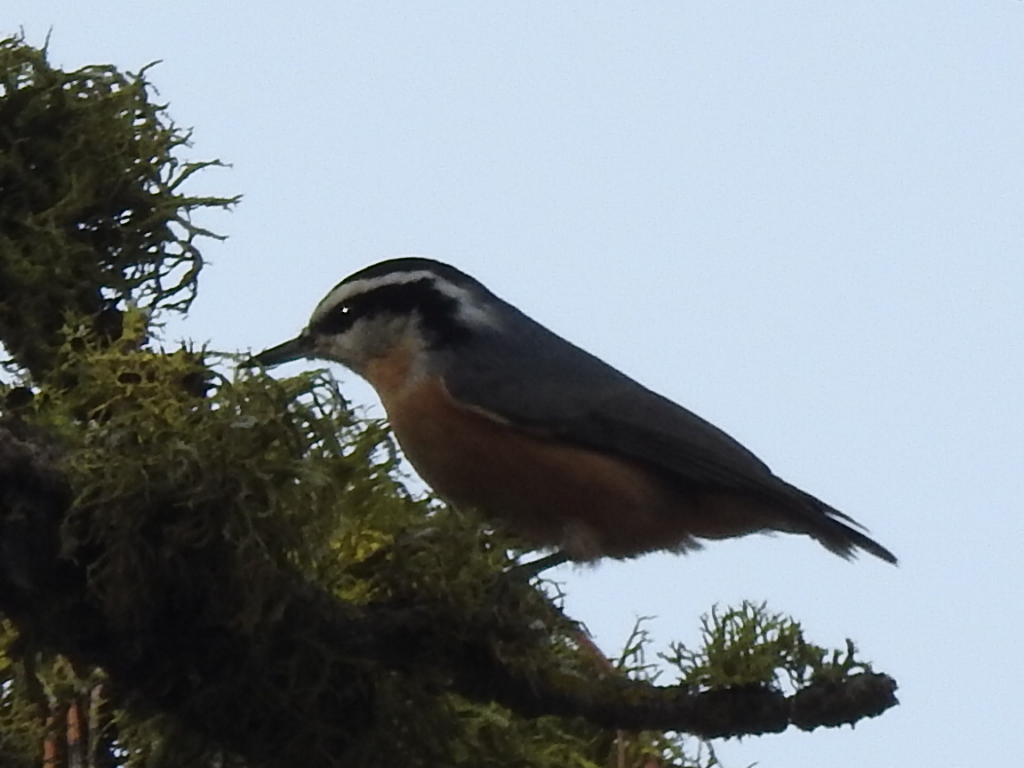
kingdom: Animalia
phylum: Chordata
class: Aves
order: Passeriformes
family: Sittidae
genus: Sitta
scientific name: Sitta canadensis
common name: Red-breasted nuthatch
